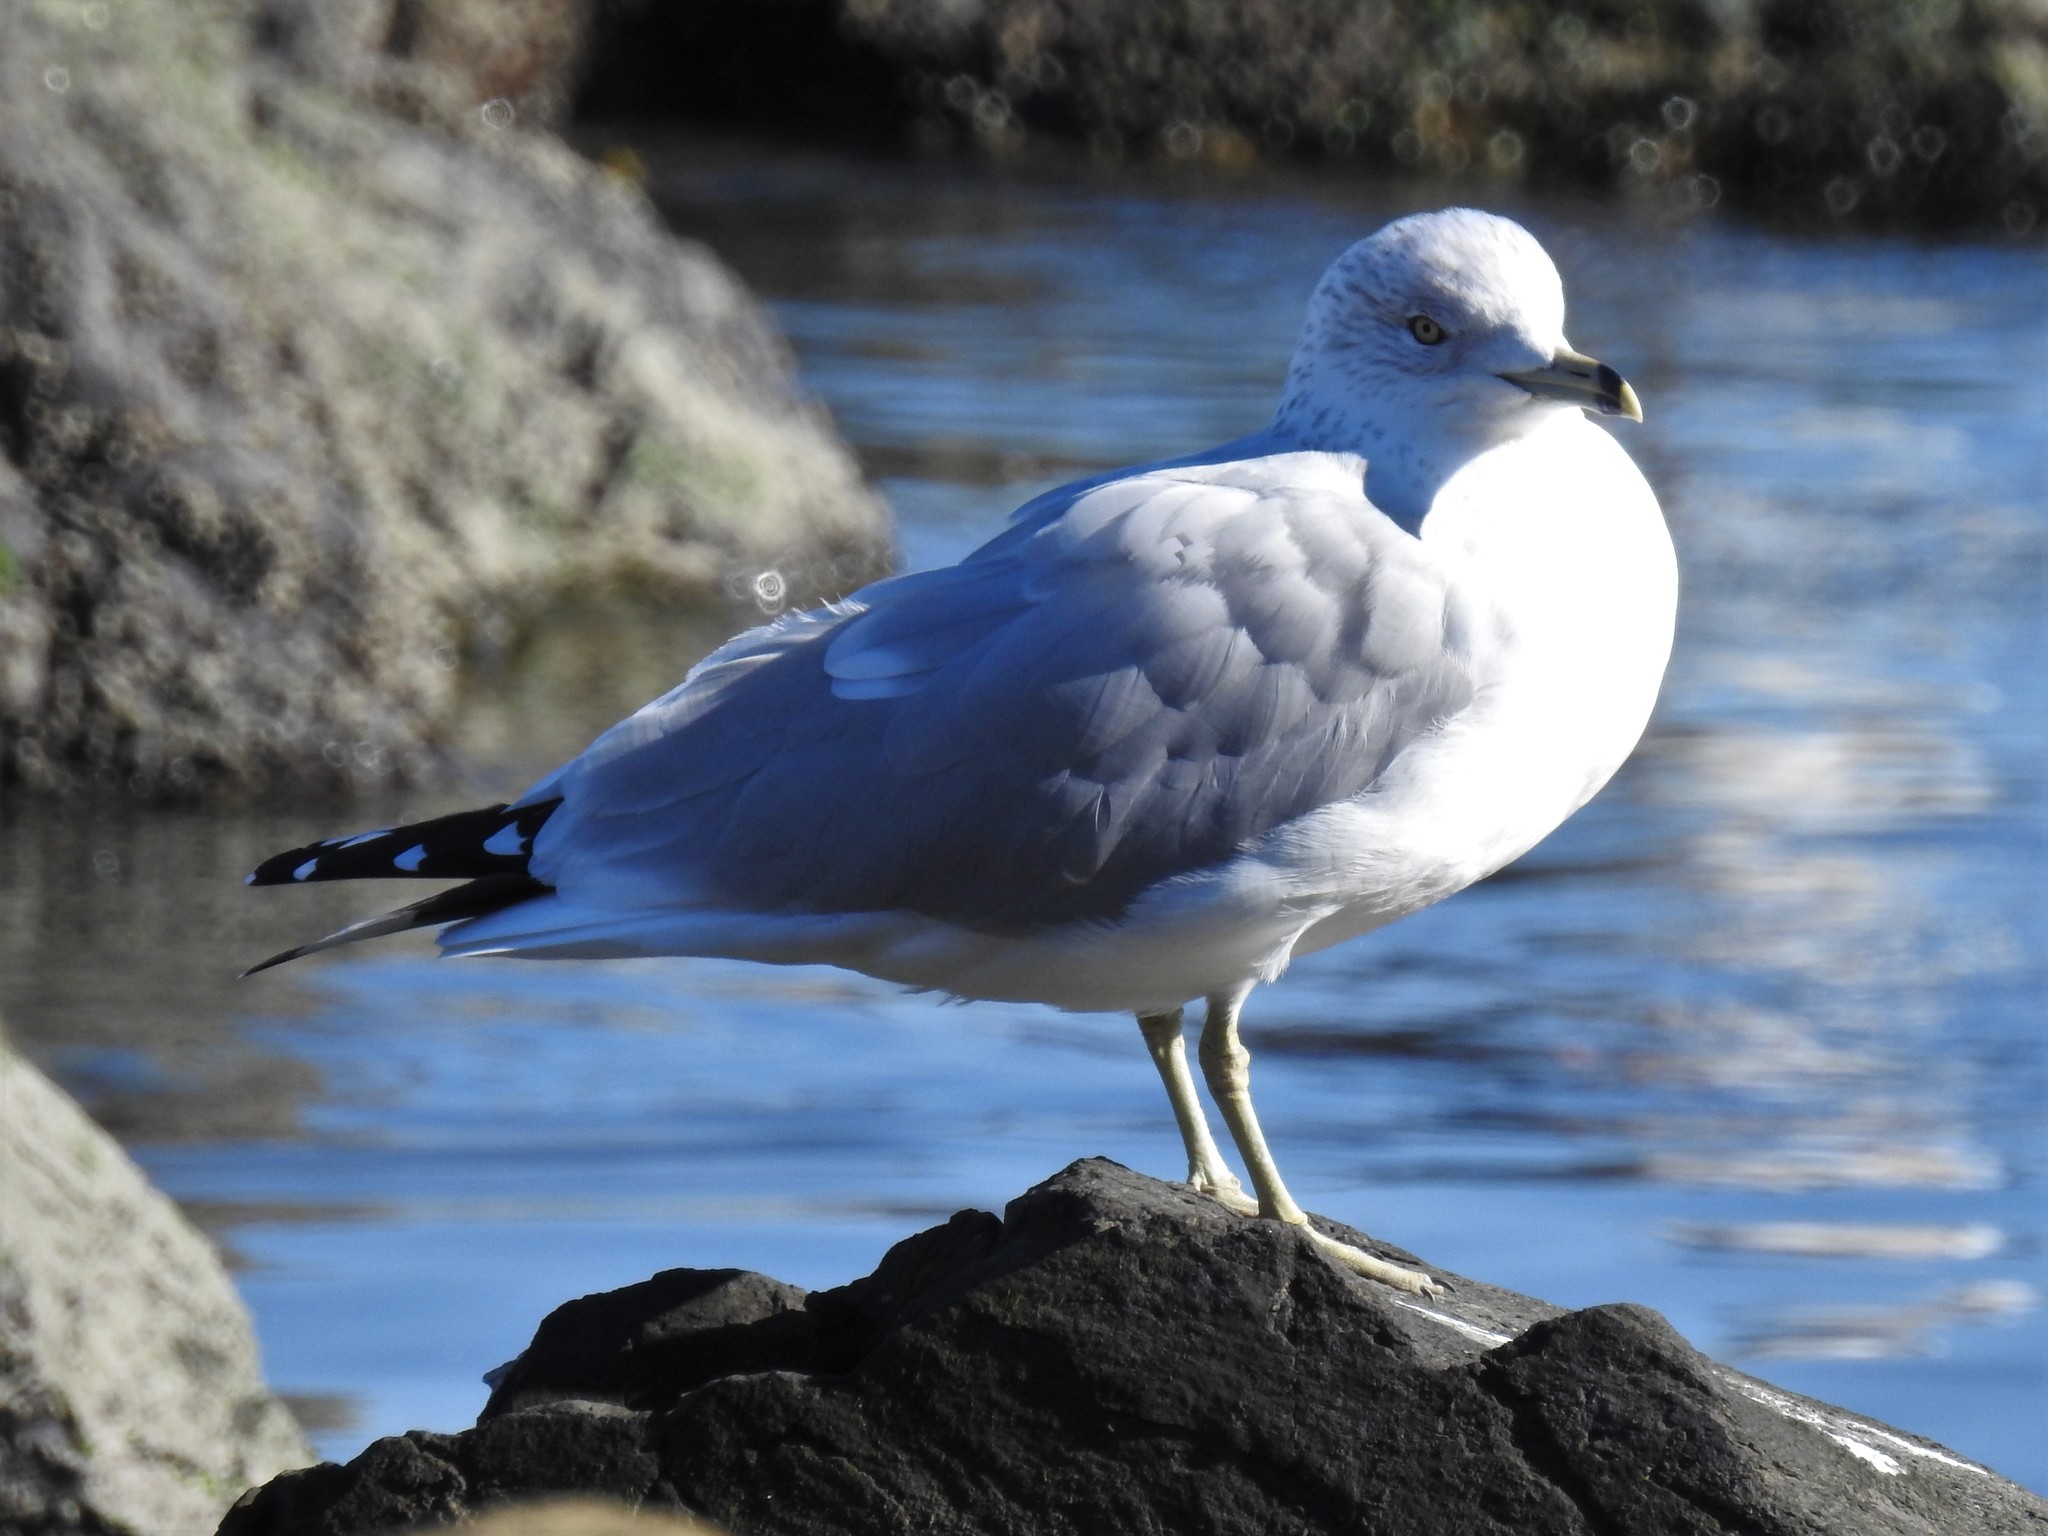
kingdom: Animalia
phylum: Chordata
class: Aves
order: Charadriiformes
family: Laridae
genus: Larus
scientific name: Larus delawarensis
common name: Ring-billed gull
